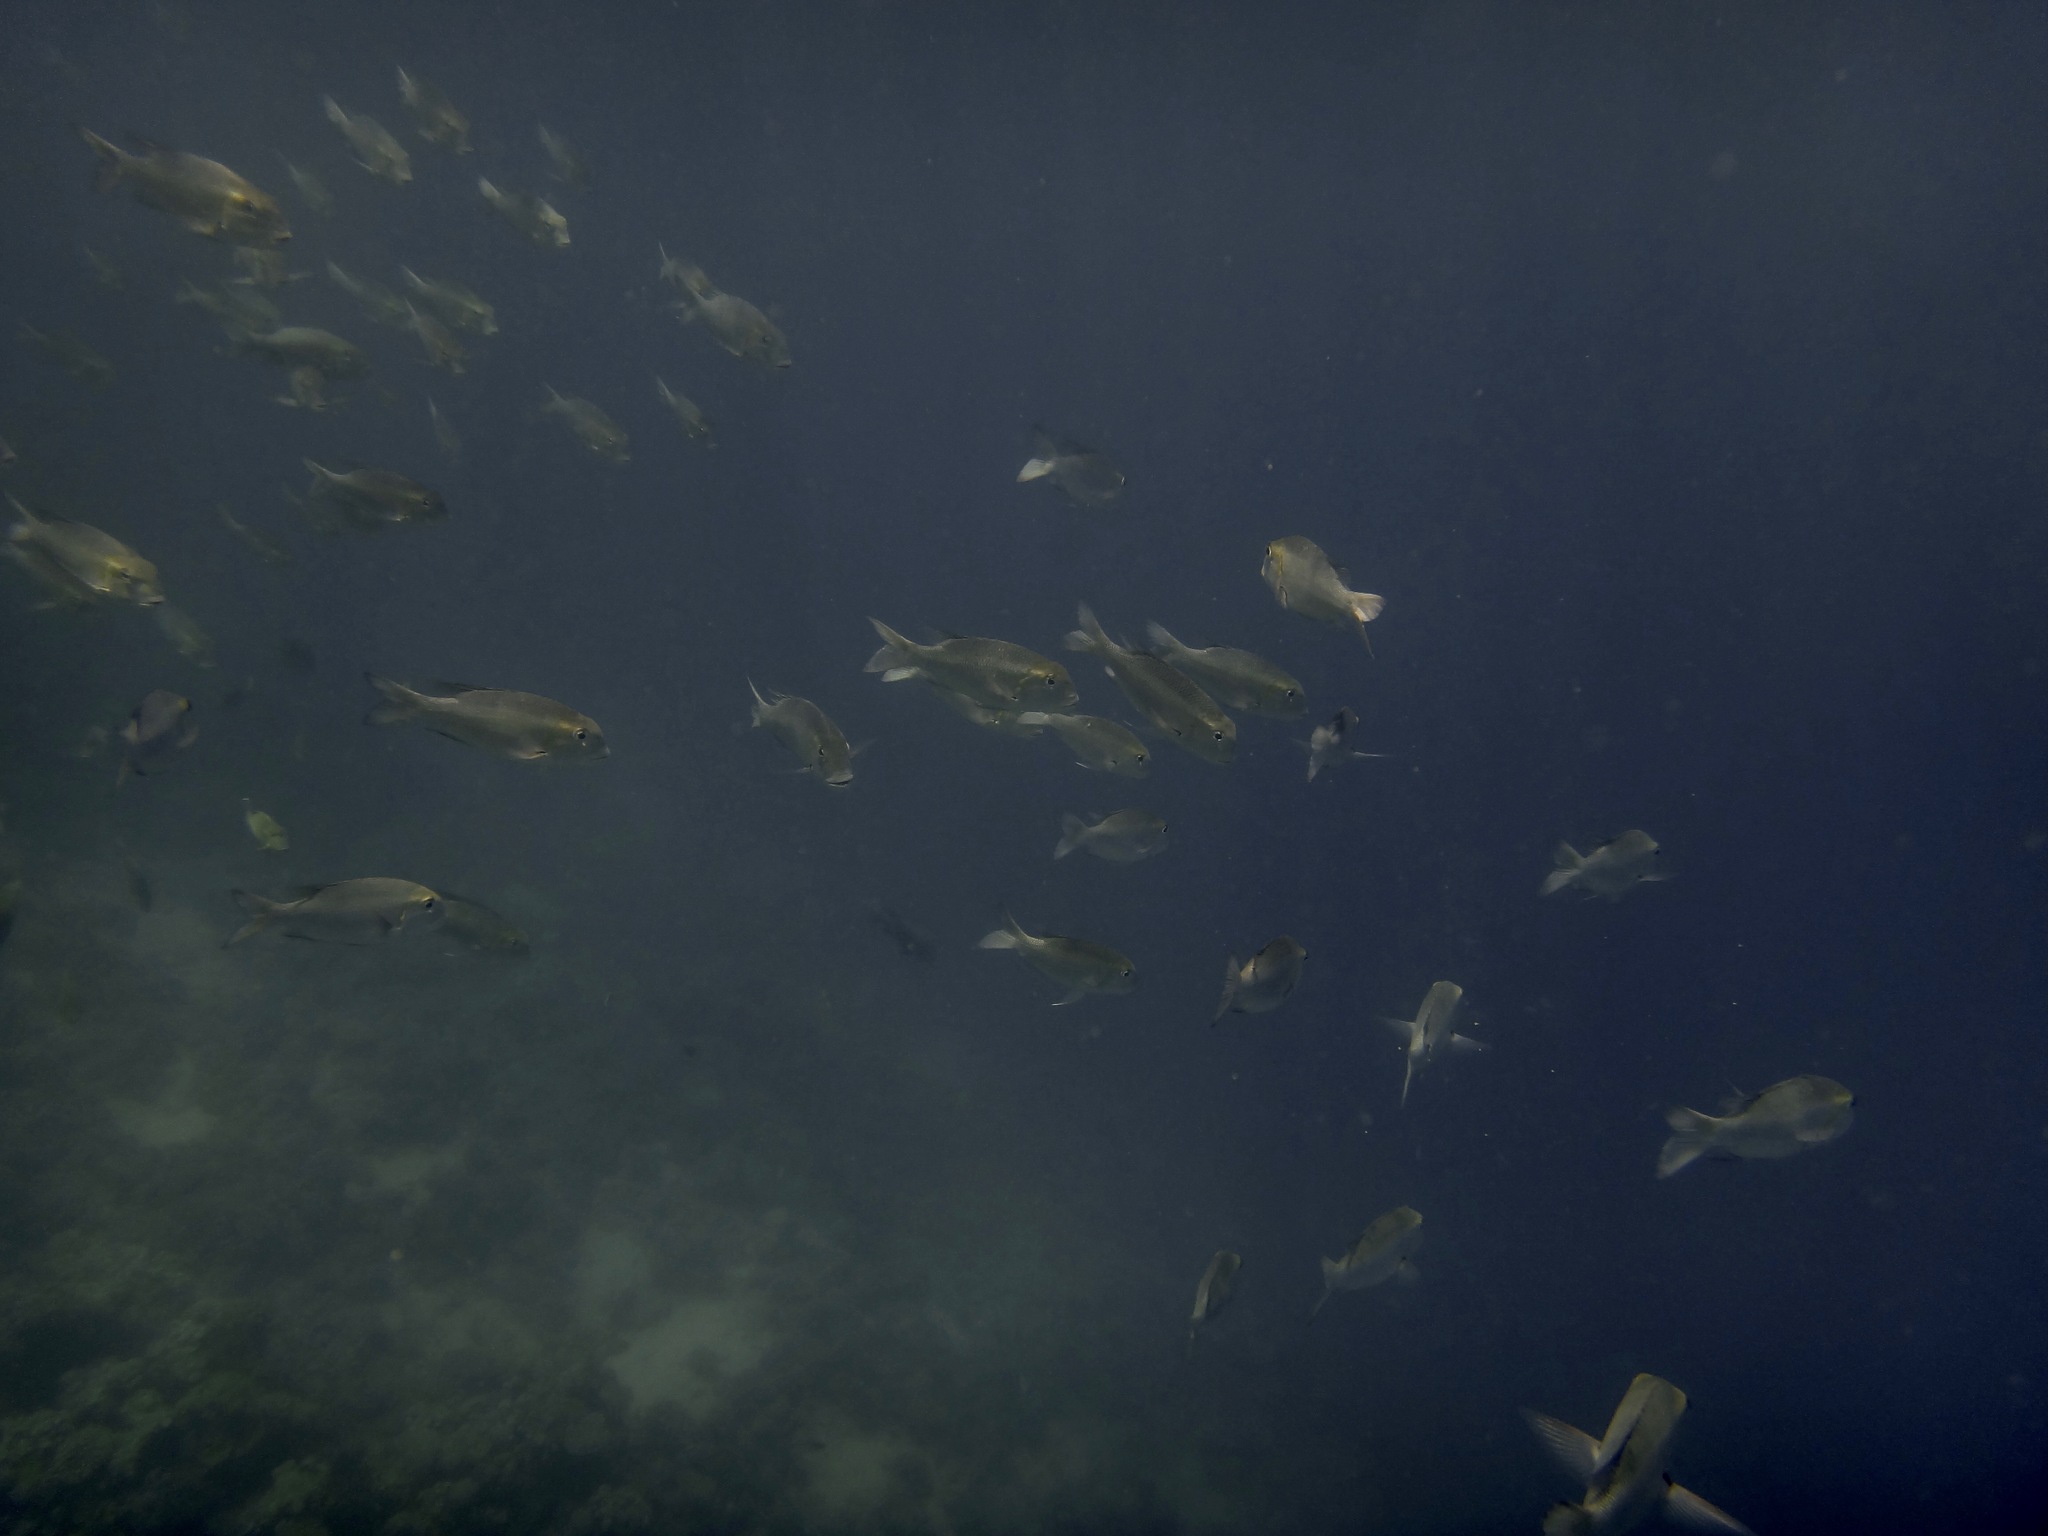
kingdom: Animalia
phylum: Chordata
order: Perciformes
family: Lethrinidae
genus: Monotaxis
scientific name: Monotaxis grandoculis
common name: Bigeye emperor
